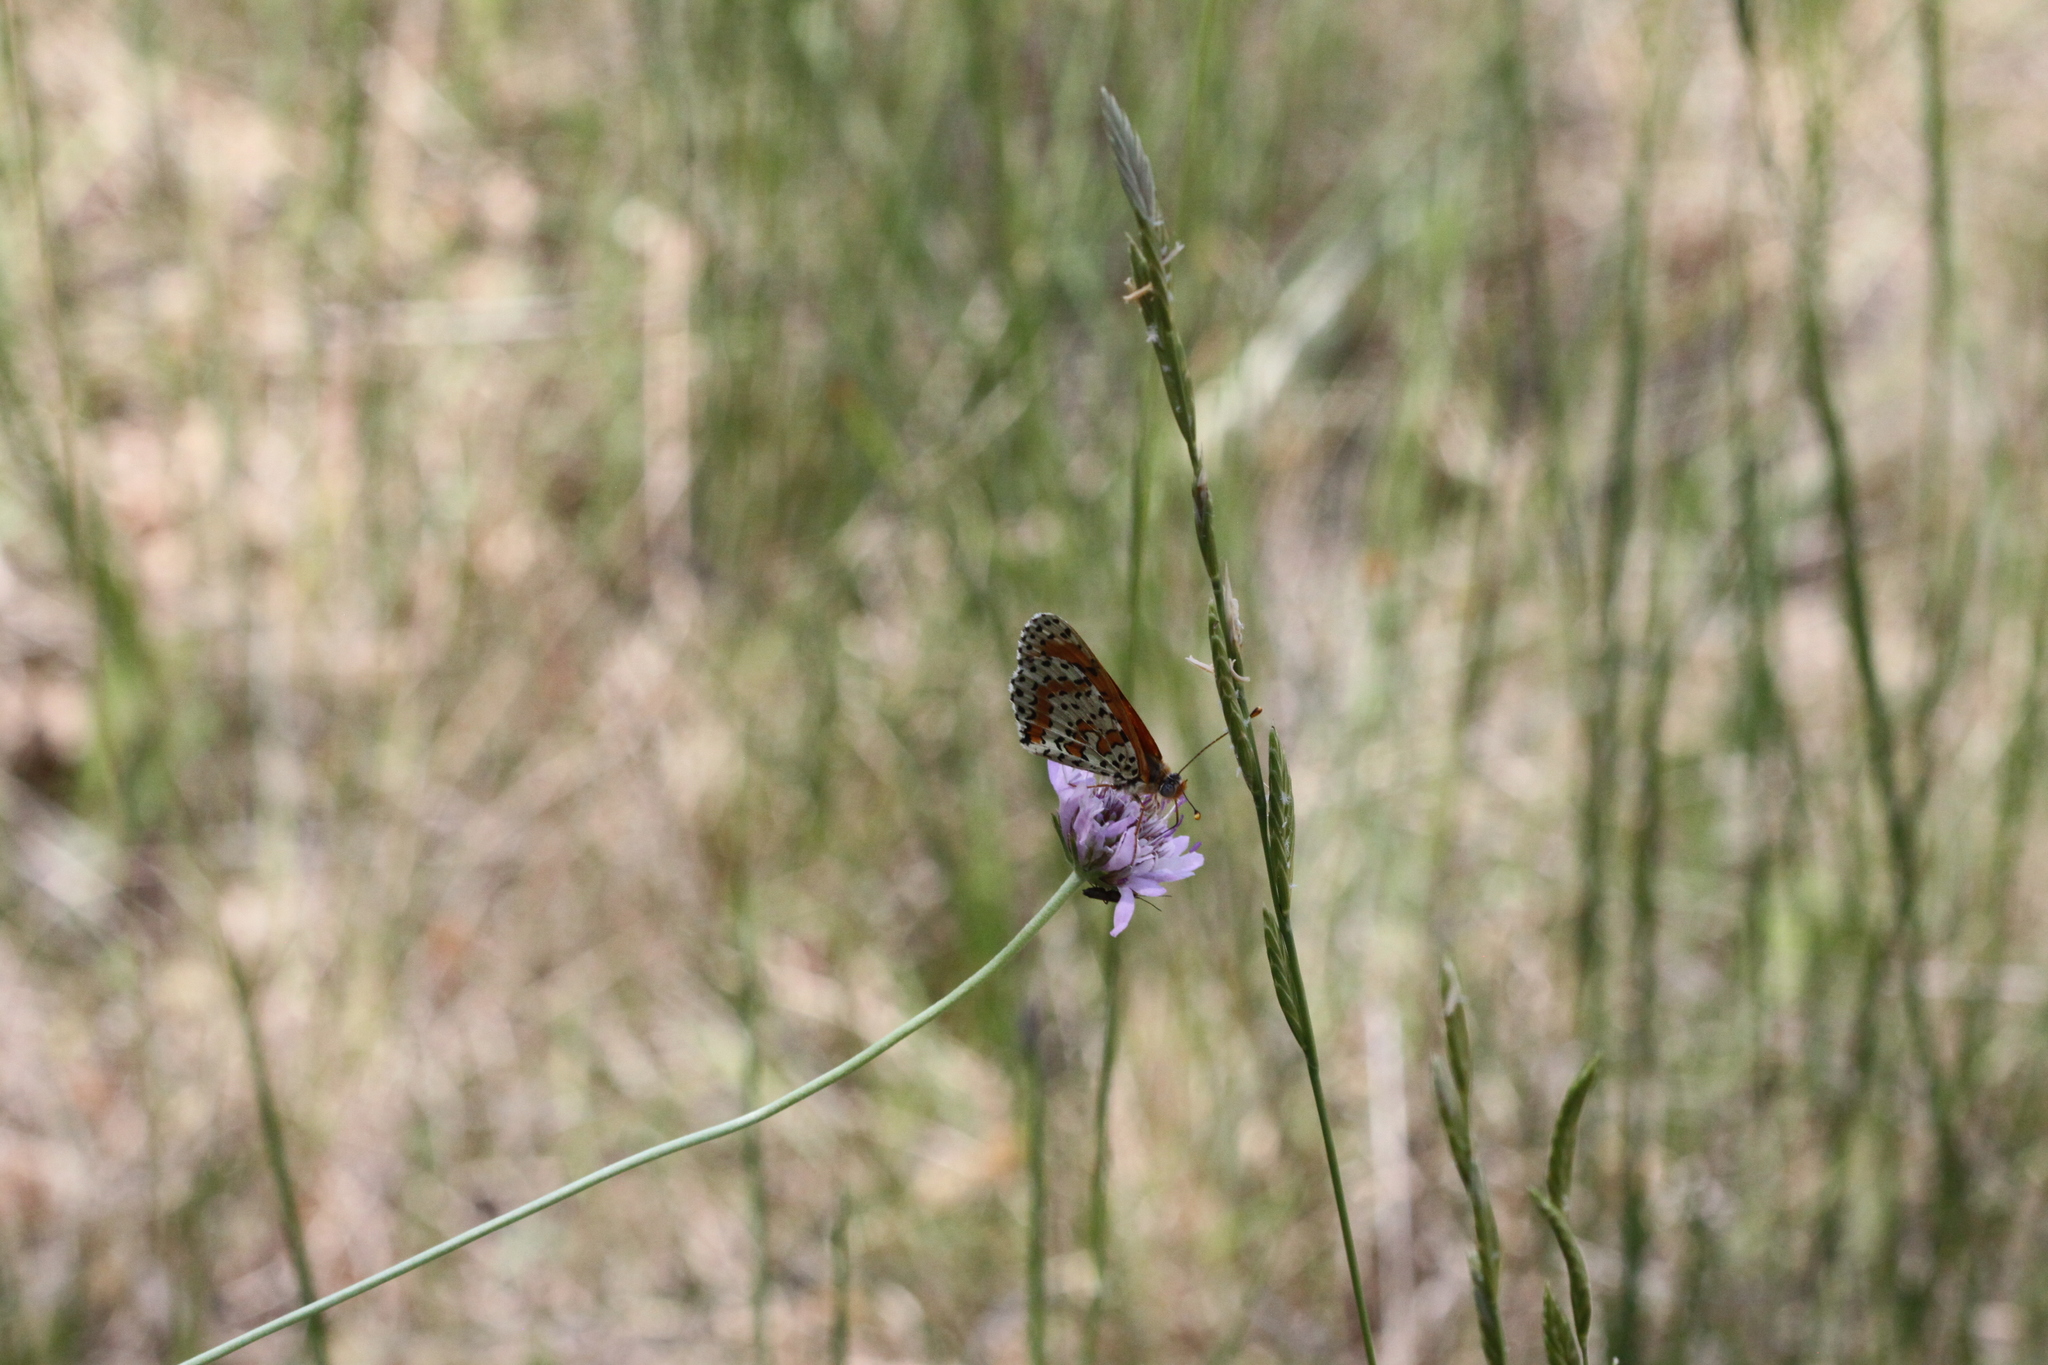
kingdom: Animalia
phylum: Arthropoda
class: Insecta
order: Lepidoptera
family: Nymphalidae
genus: Melitaea
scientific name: Melitaea didyma
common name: Spotted fritillary
